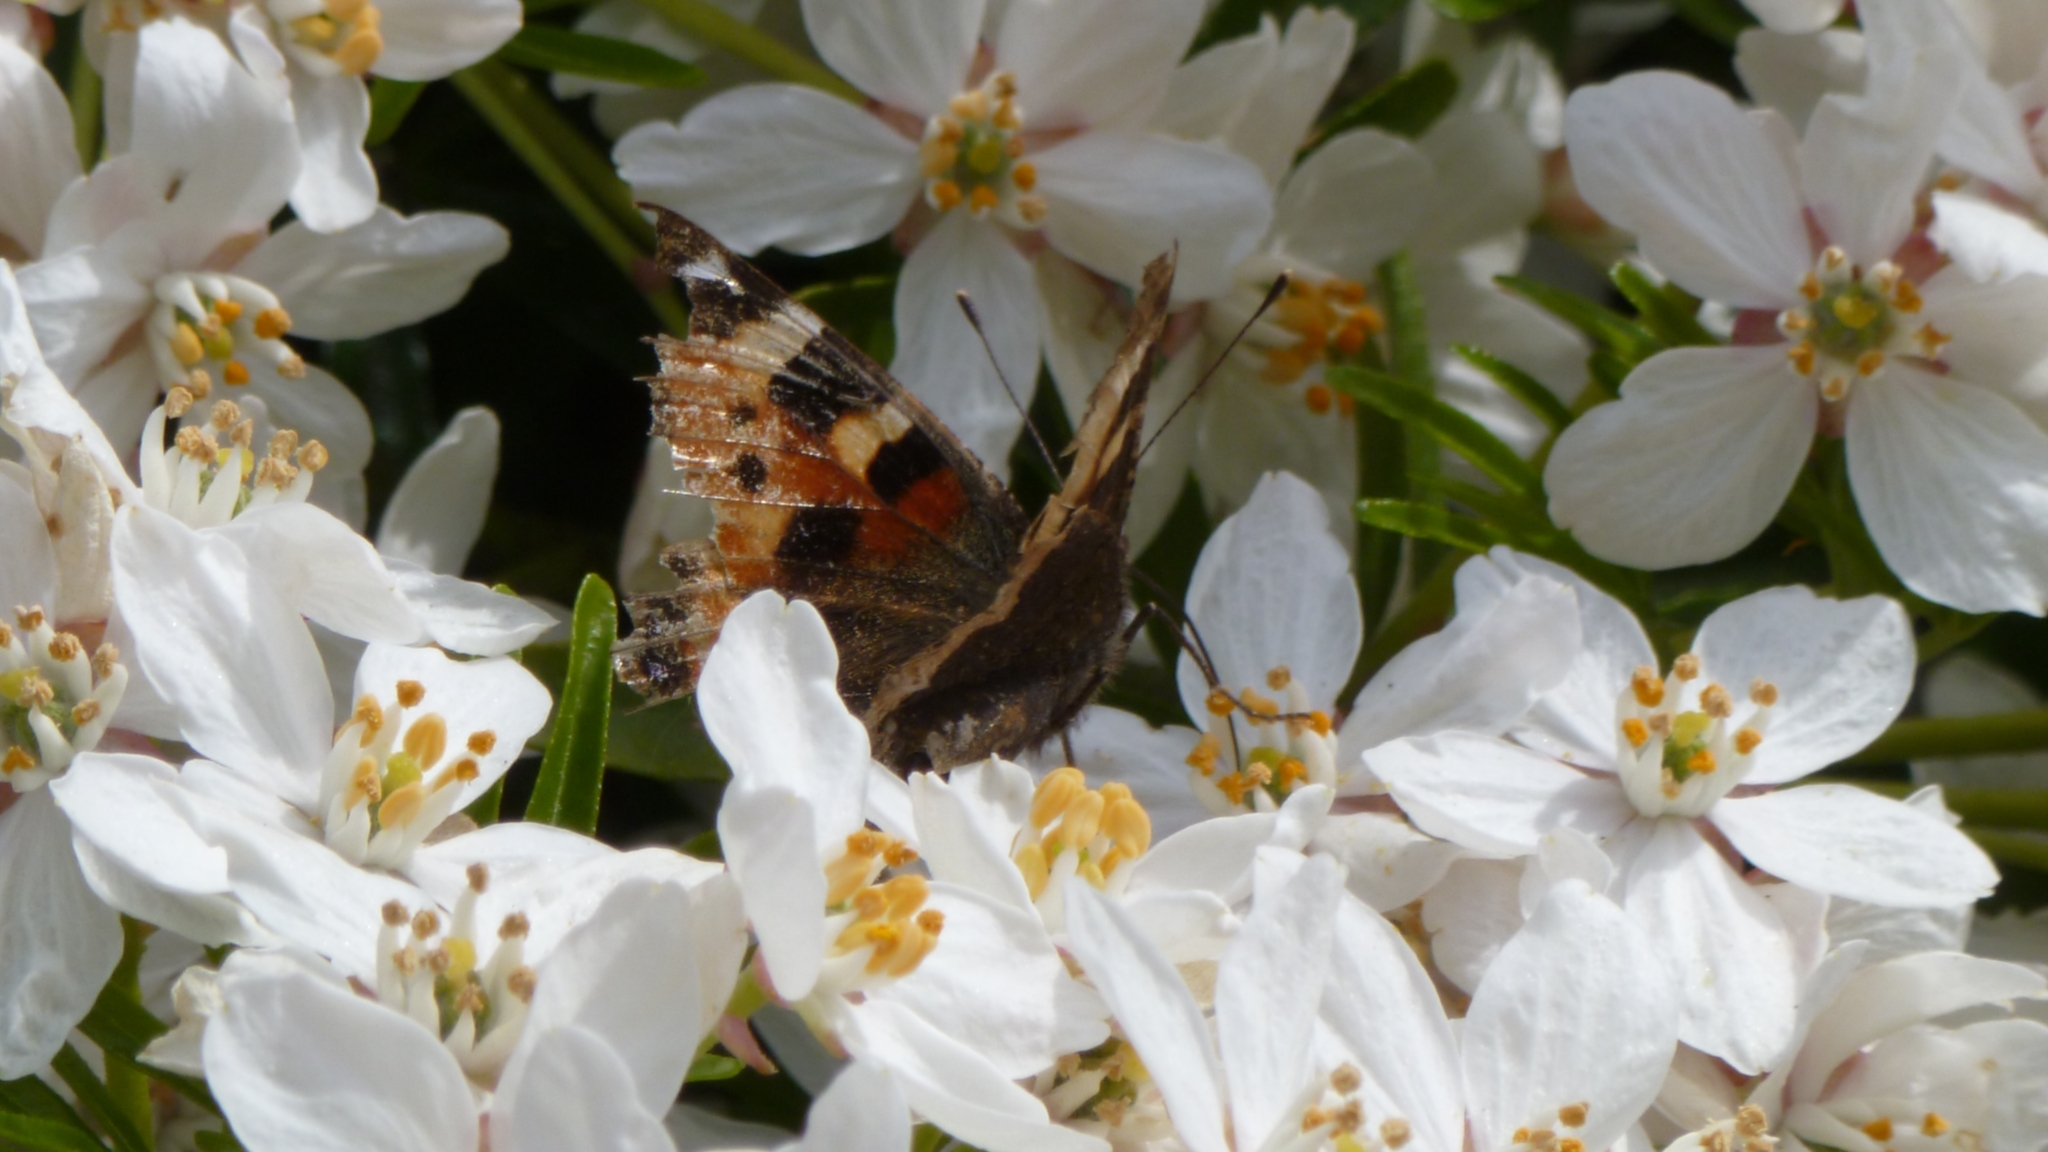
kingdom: Animalia
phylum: Arthropoda
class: Insecta
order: Lepidoptera
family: Nymphalidae
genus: Aglais
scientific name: Aglais urticae
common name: Small tortoiseshell
